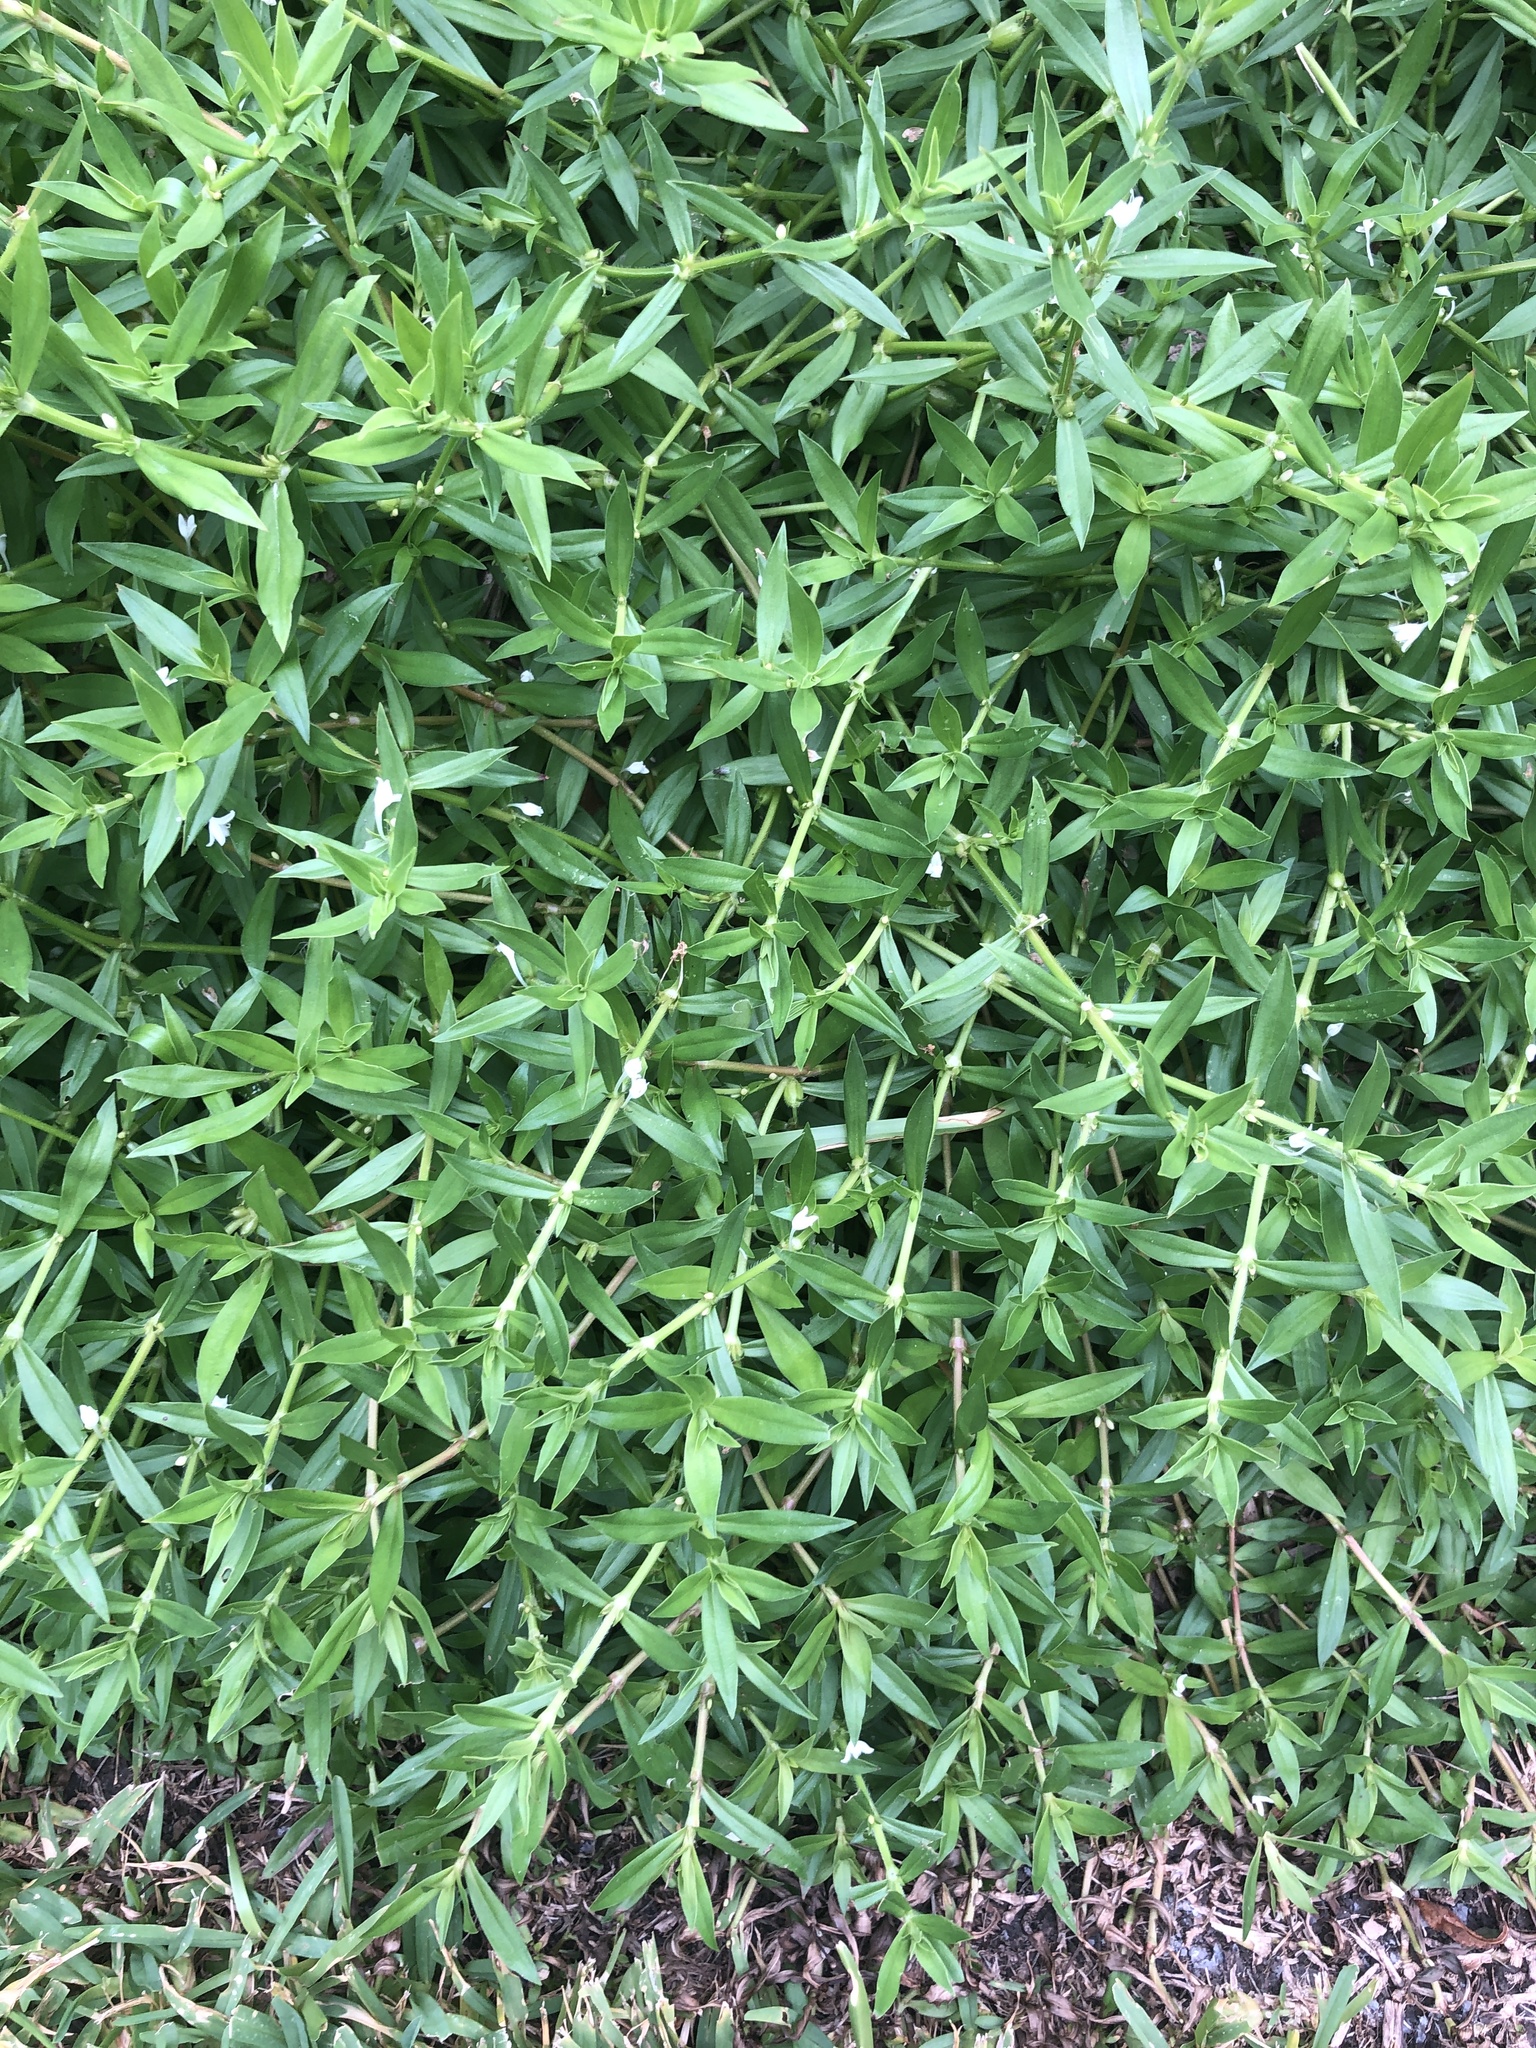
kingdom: Plantae
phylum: Tracheophyta
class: Magnoliopsida
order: Gentianales
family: Rubiaceae
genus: Diodia
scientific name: Diodia virginiana
